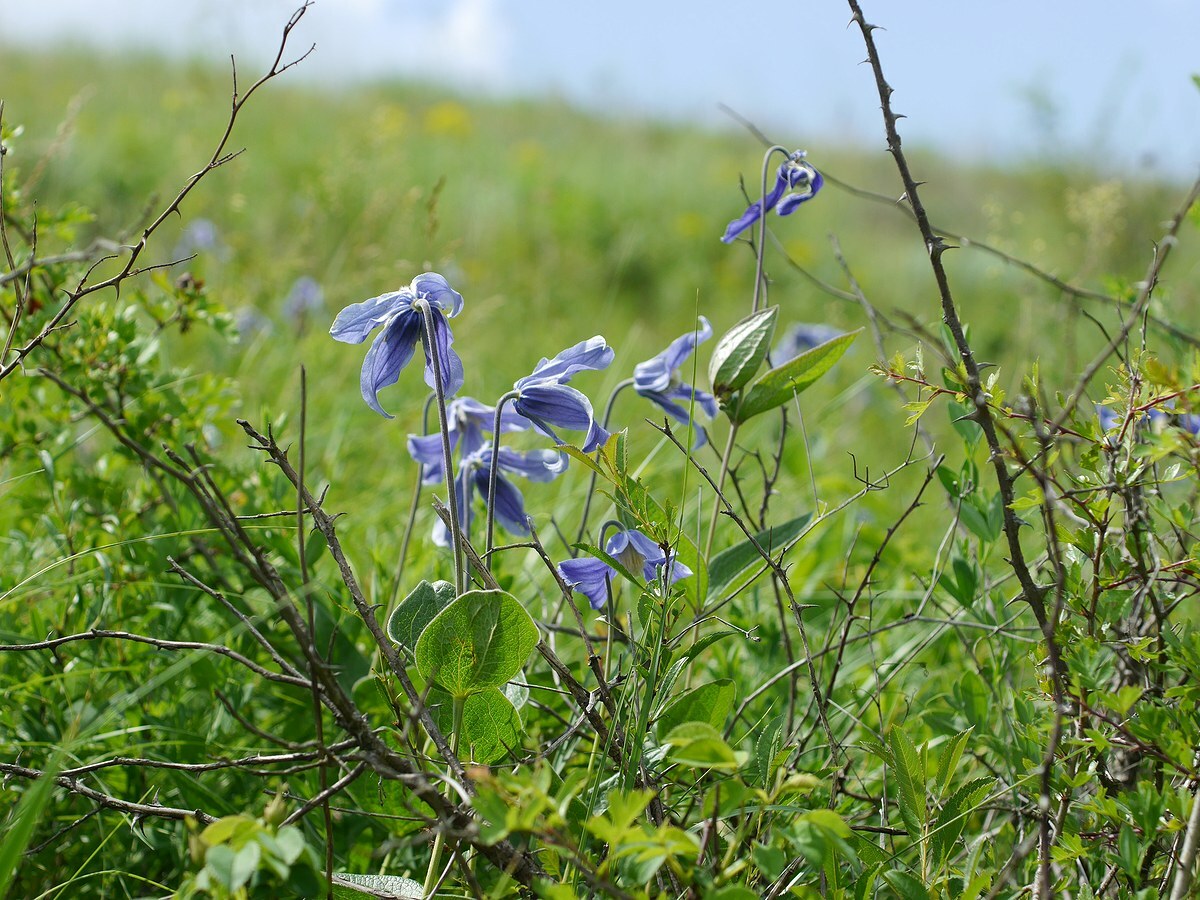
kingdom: Plantae
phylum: Tracheophyta
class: Magnoliopsida
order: Ranunculales
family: Ranunculaceae
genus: Clematis
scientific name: Clematis integrifolia
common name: Solitary clematis
